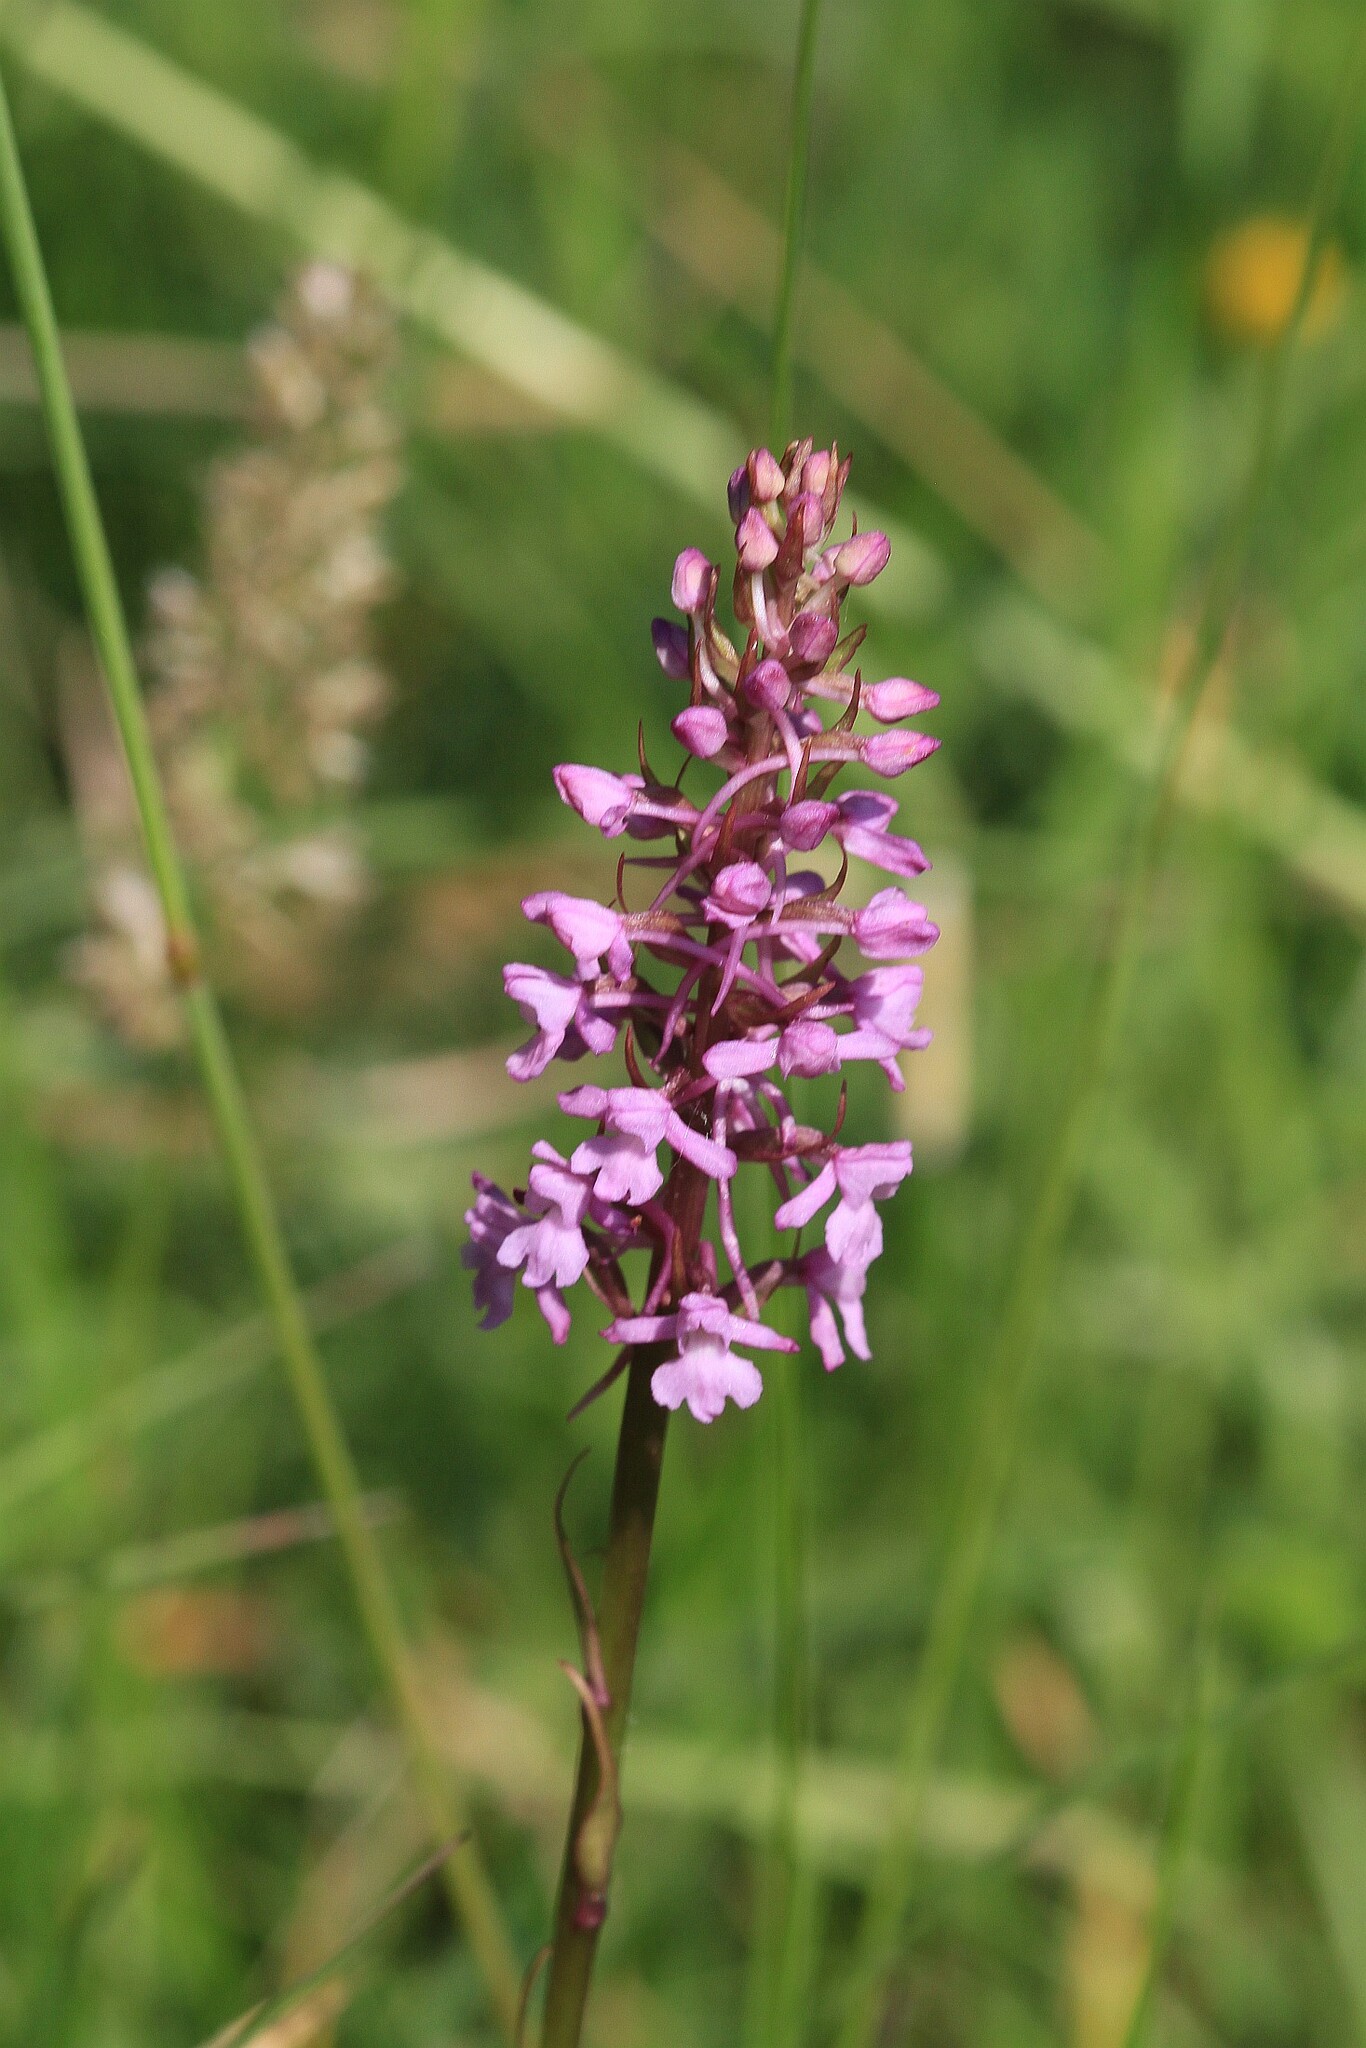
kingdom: Plantae
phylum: Tracheophyta
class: Liliopsida
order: Asparagales
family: Orchidaceae
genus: Gymnadenia
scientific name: Gymnadenia conopsea
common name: Fragrant orchid
